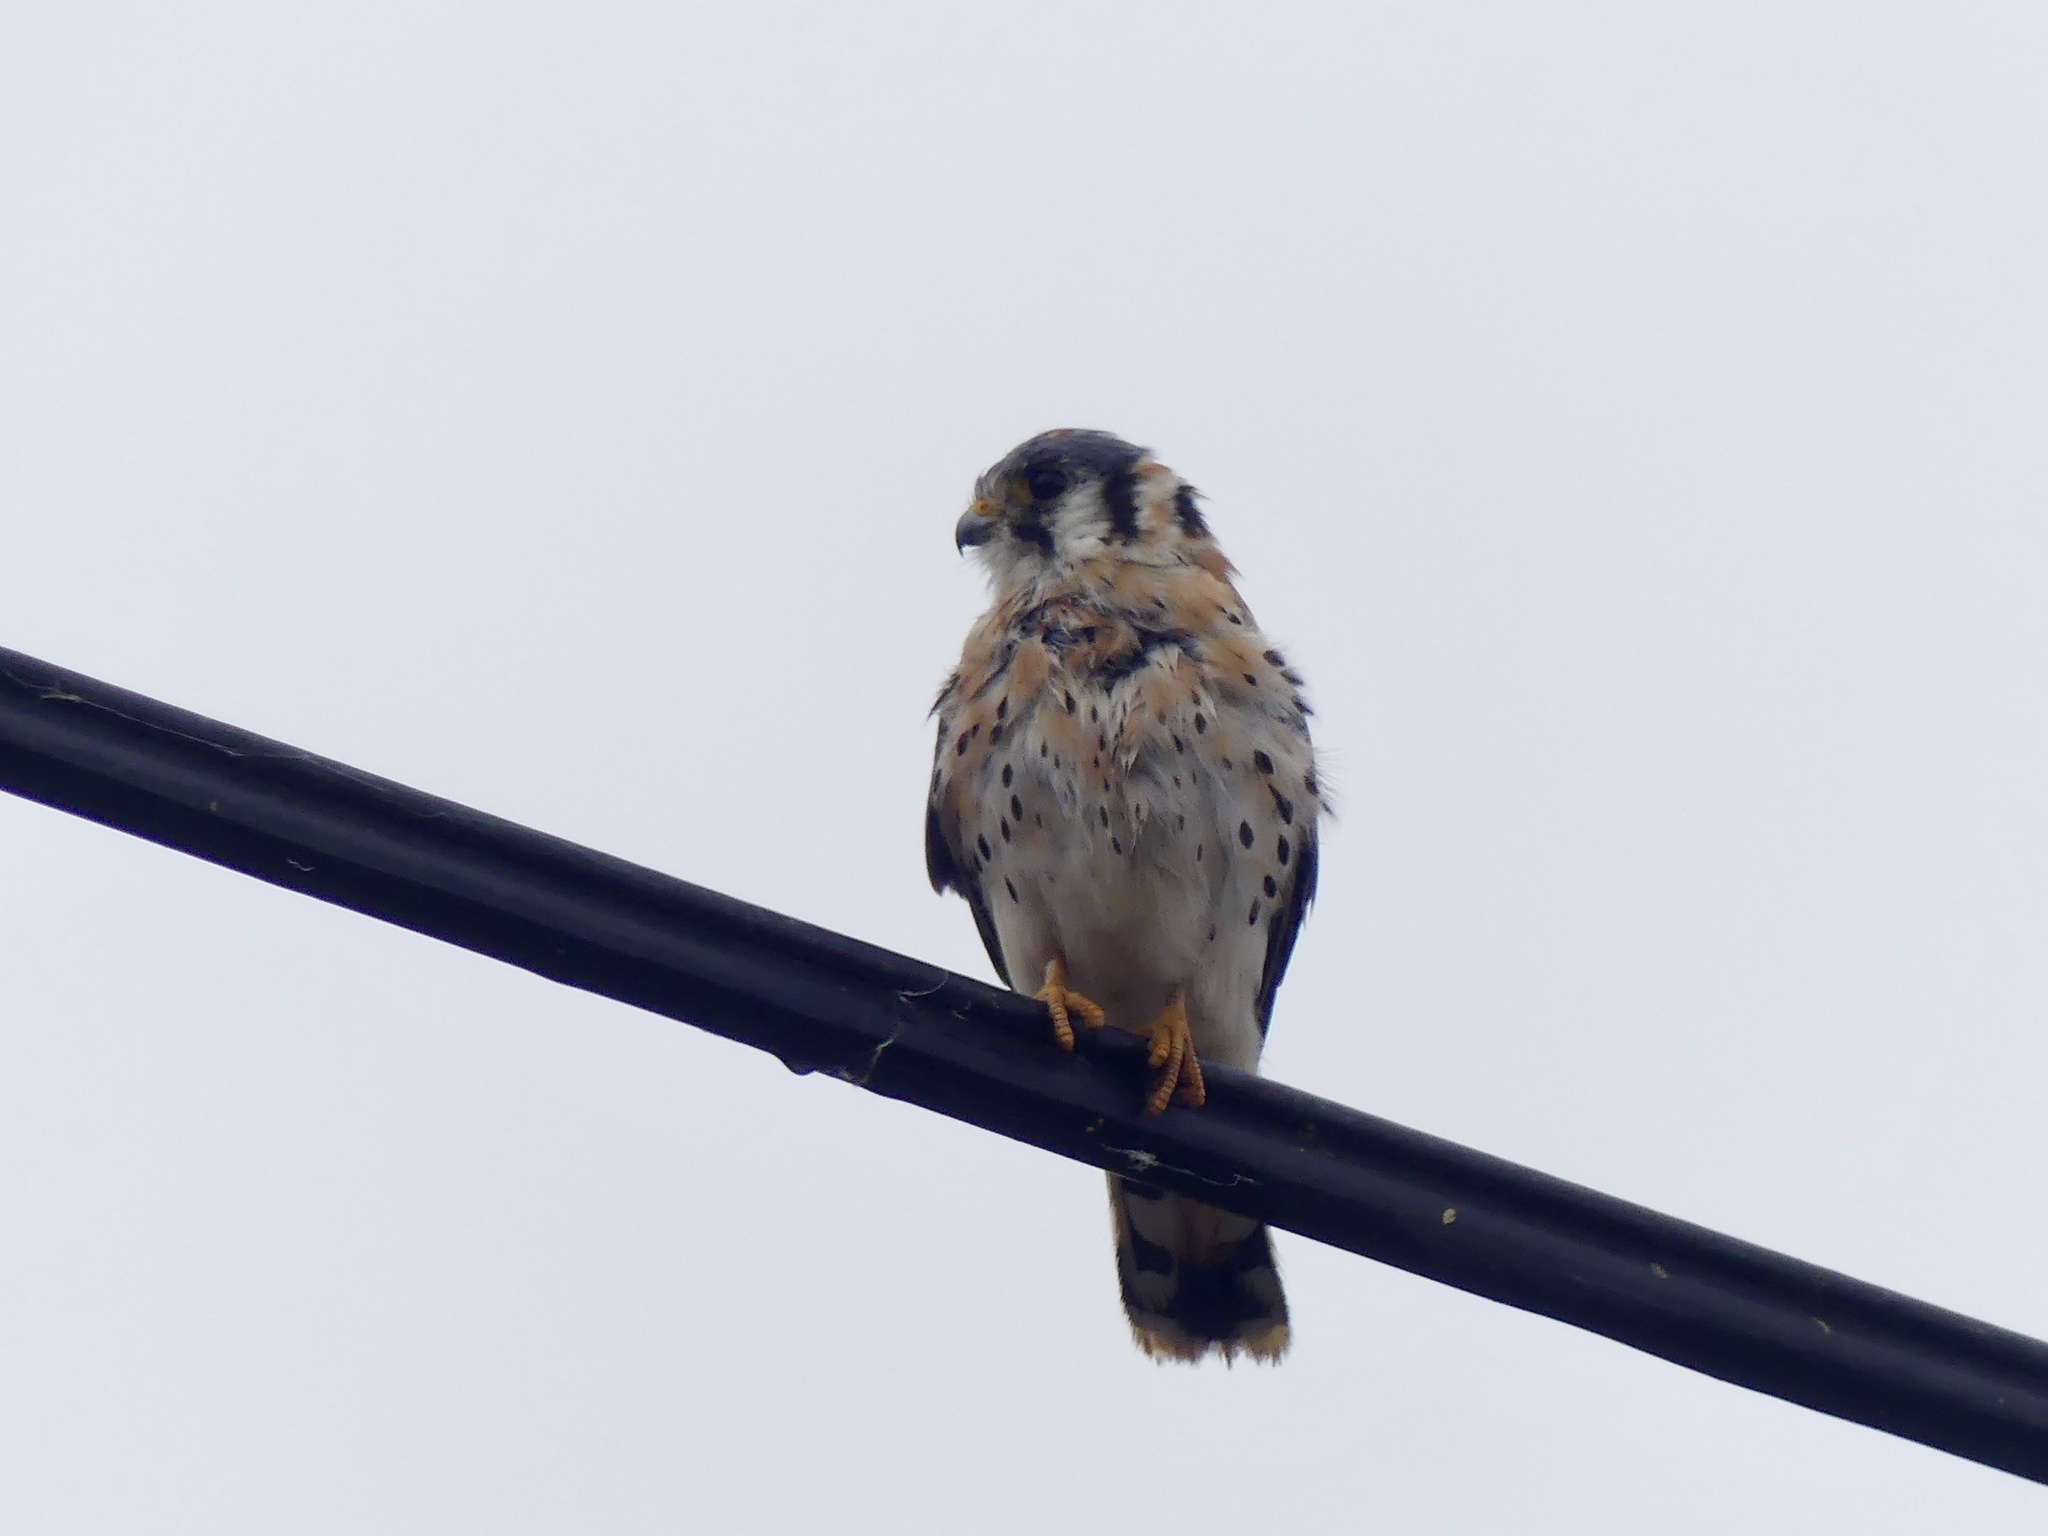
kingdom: Animalia
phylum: Chordata
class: Aves
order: Falconiformes
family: Falconidae
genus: Falco
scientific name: Falco sparverius
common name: American kestrel
